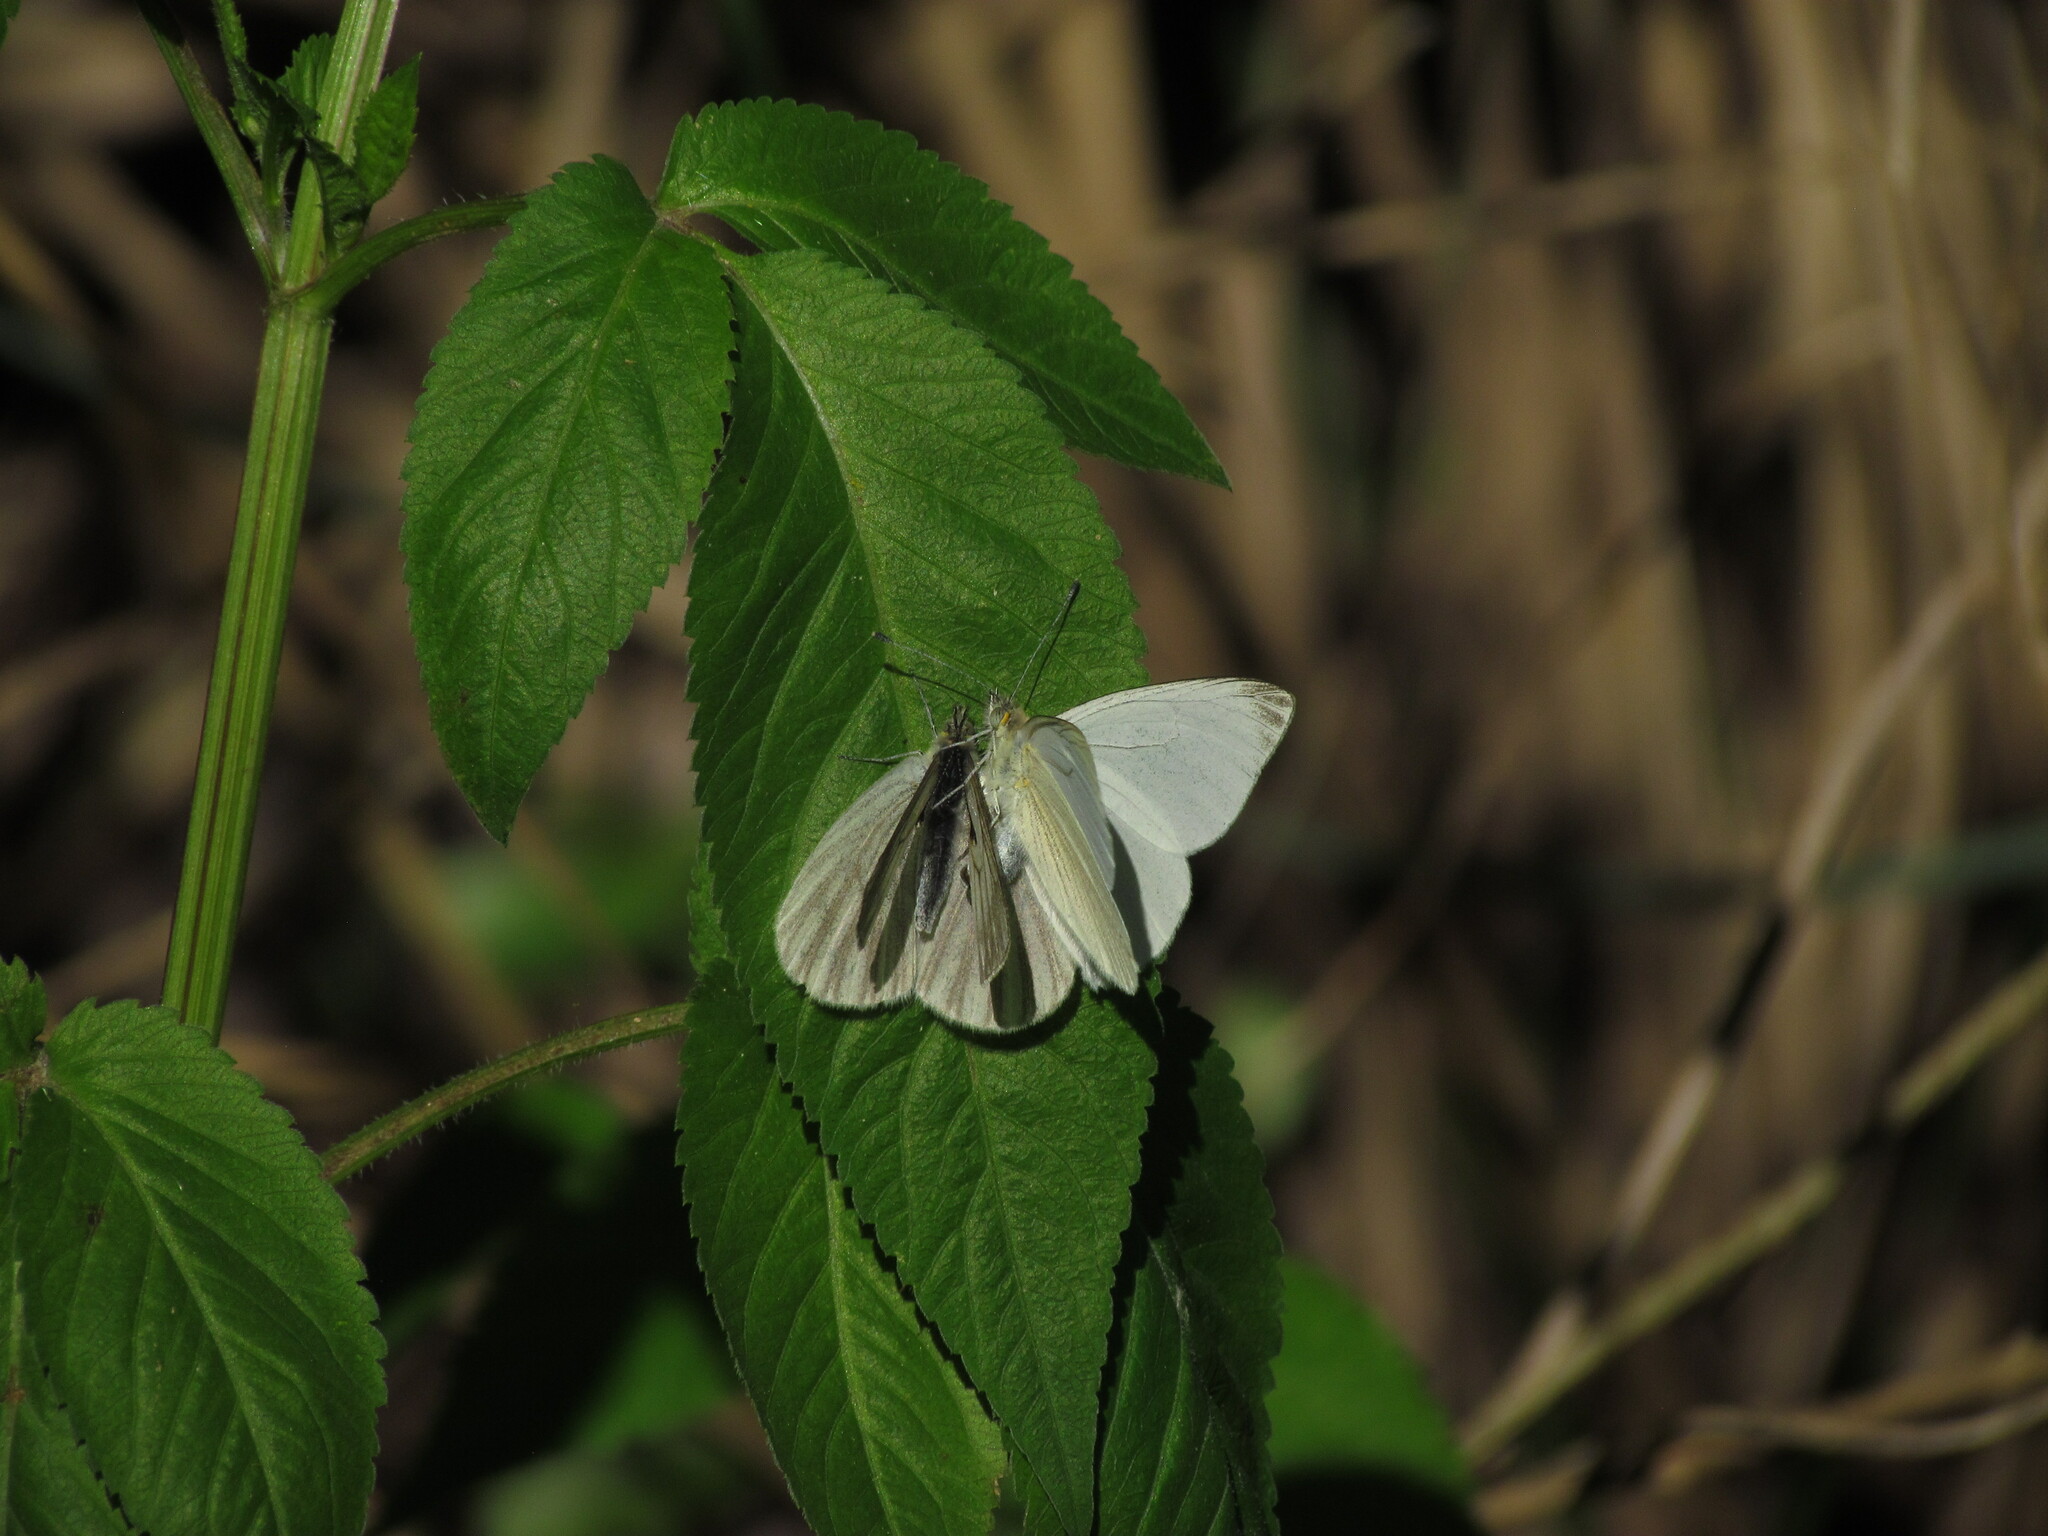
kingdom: Animalia
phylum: Arthropoda
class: Insecta
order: Lepidoptera
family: Pieridae
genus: Theochila
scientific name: Theochila maenacte
